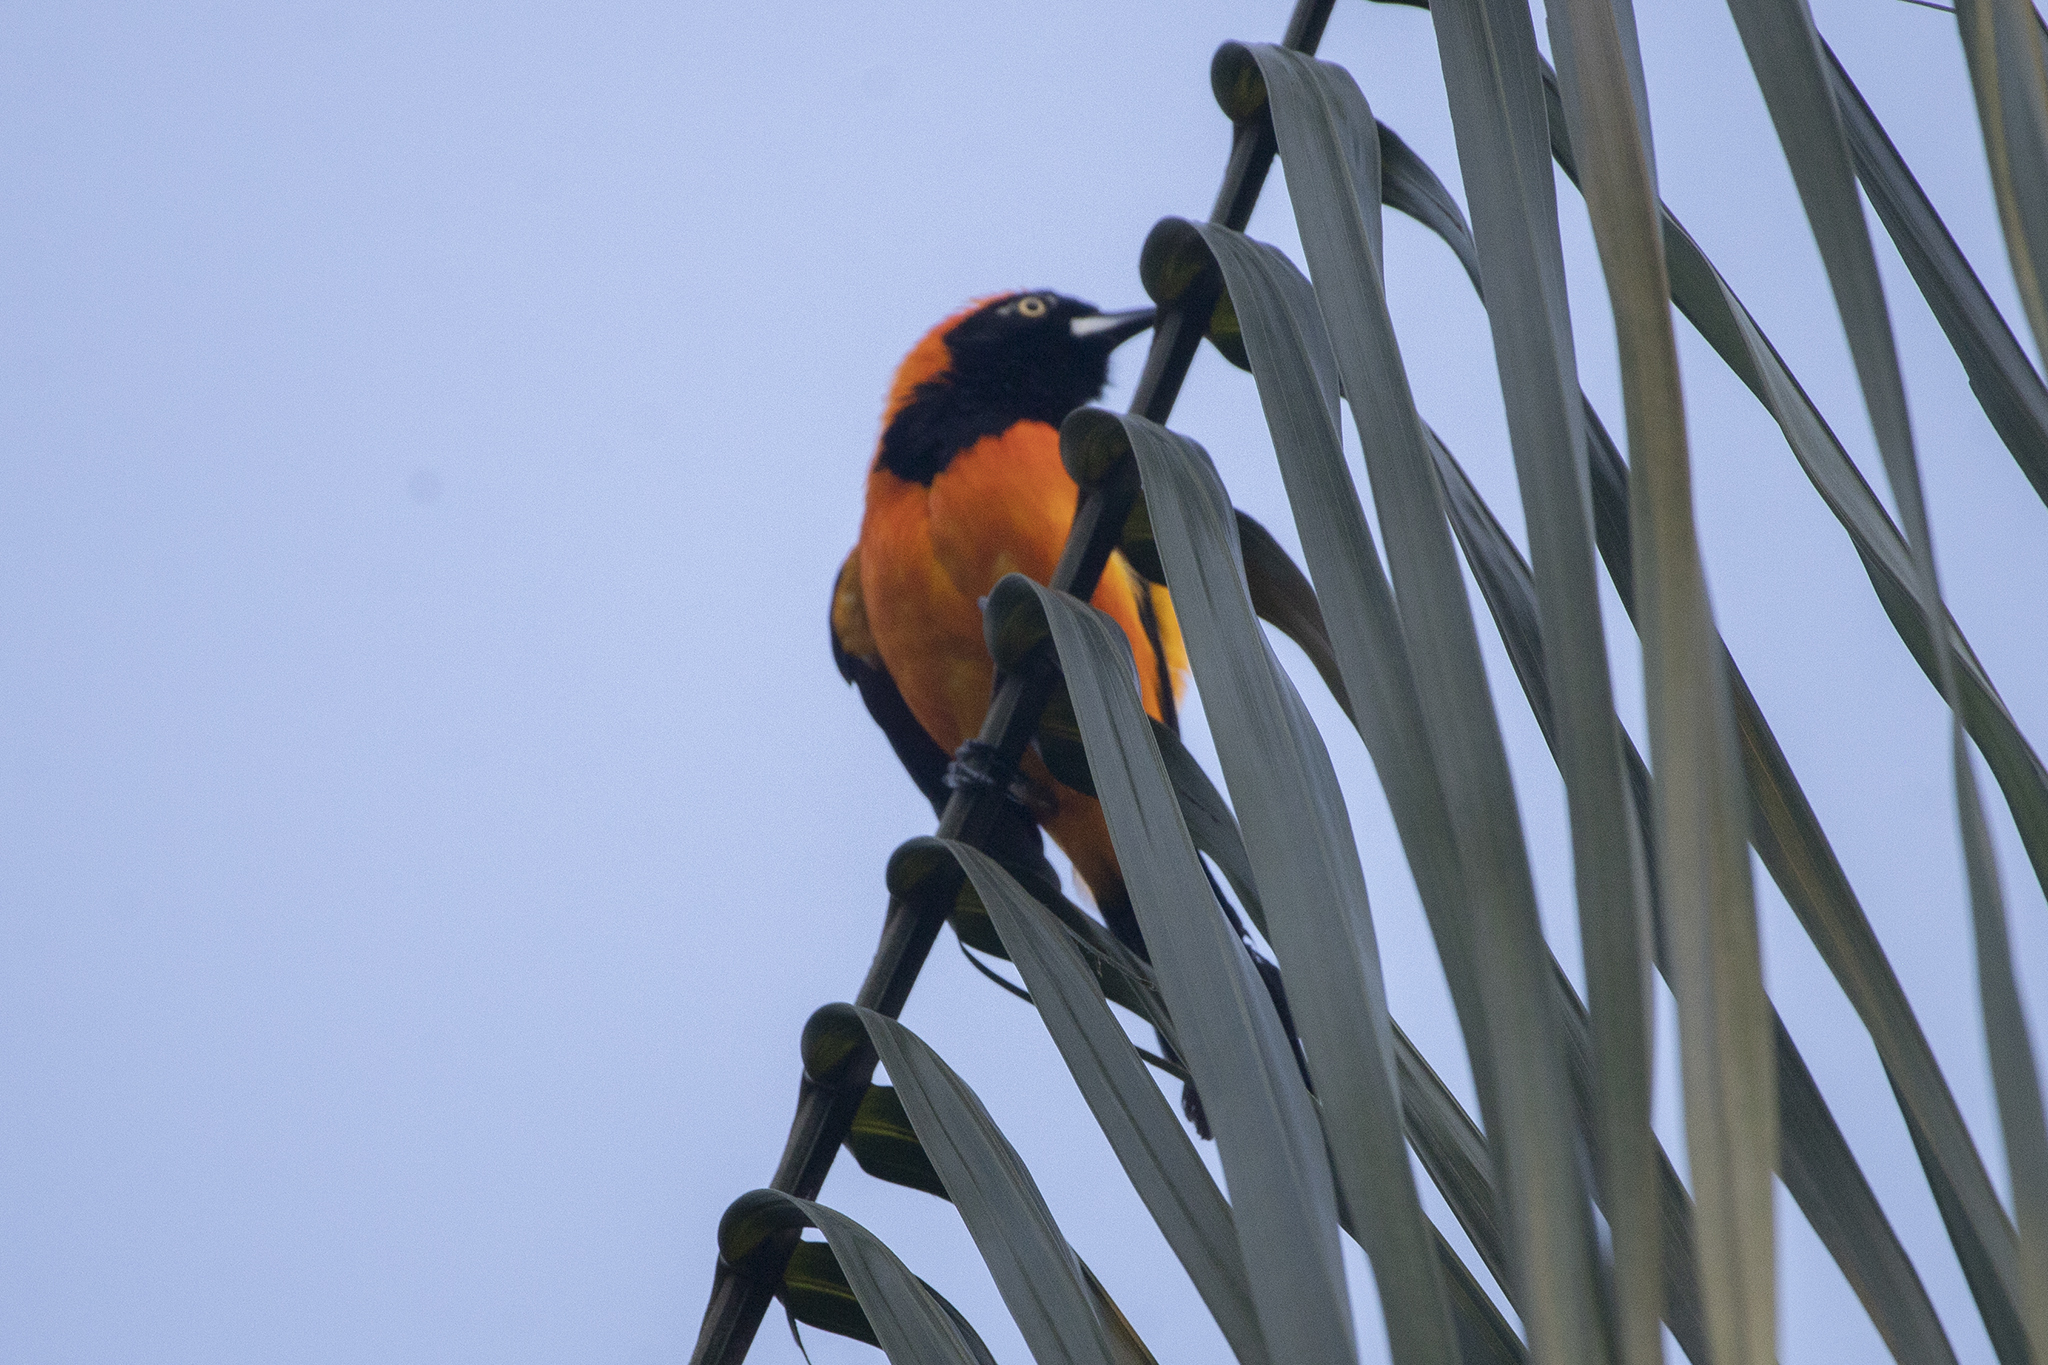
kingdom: Animalia
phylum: Chordata
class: Aves
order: Passeriformes
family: Icteridae
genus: Icterus
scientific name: Icterus icterus
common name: Venezuelan troupial
